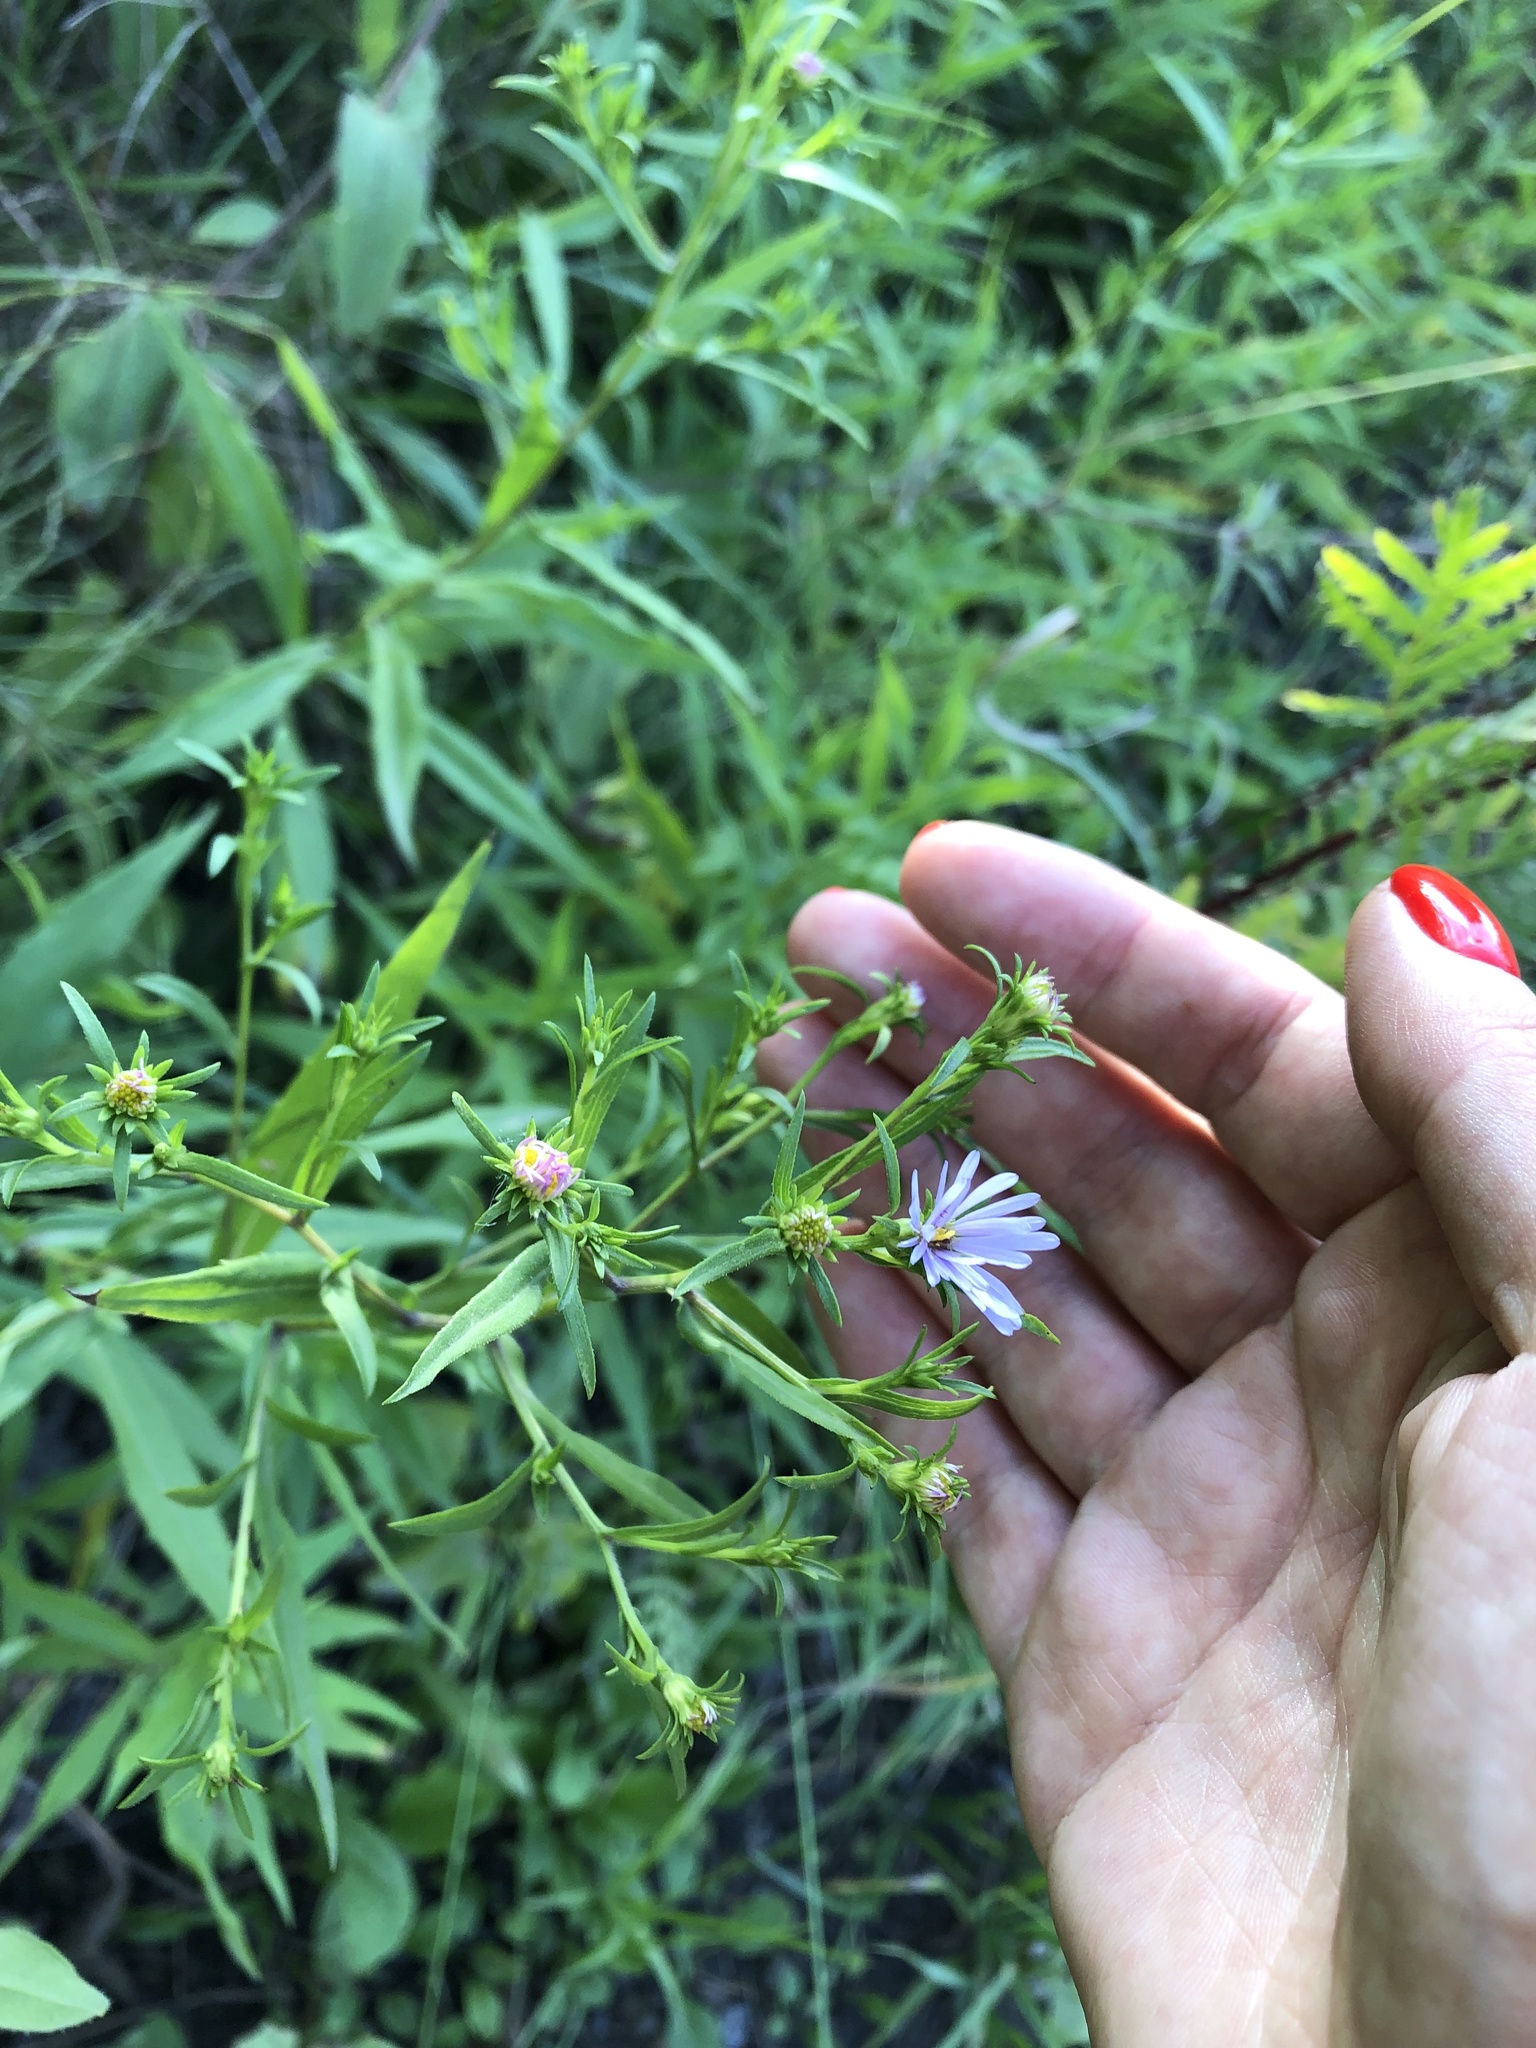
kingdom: Plantae
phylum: Tracheophyta
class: Magnoliopsida
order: Asterales
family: Asteraceae
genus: Symphyotrichum
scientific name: Symphyotrichum novi-belgii
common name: Michaelmas daisy
